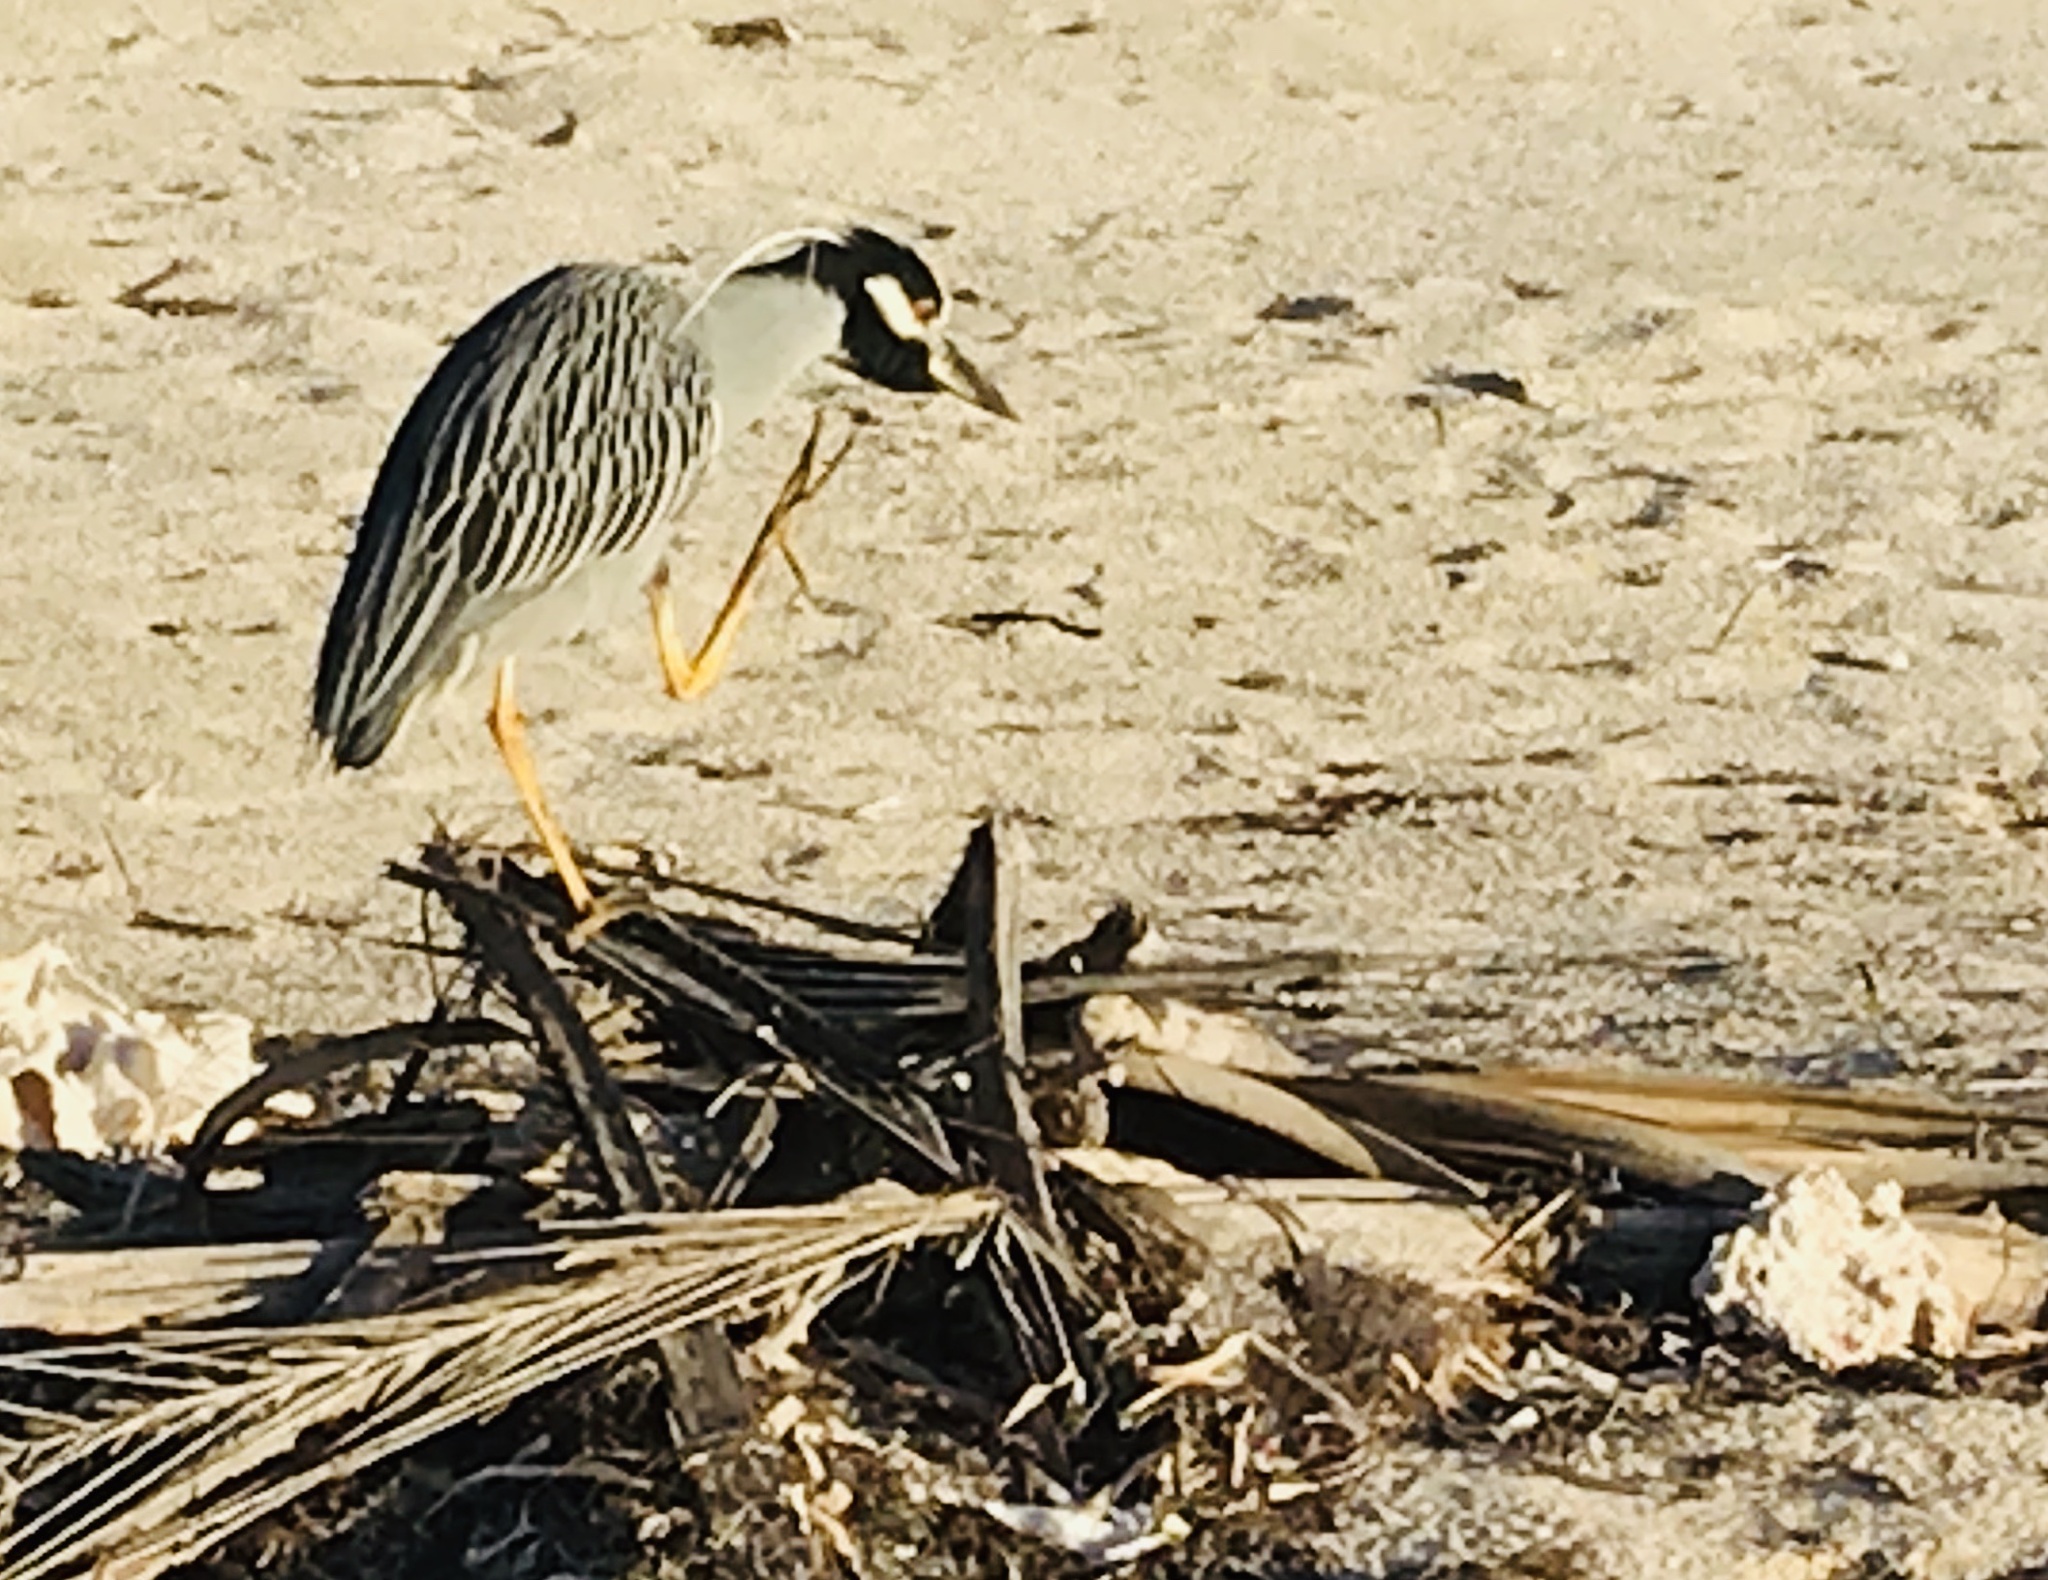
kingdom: Animalia
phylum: Chordata
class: Aves
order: Pelecaniformes
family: Ardeidae
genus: Nyctanassa
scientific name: Nyctanassa violacea
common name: Yellow-crowned night heron
